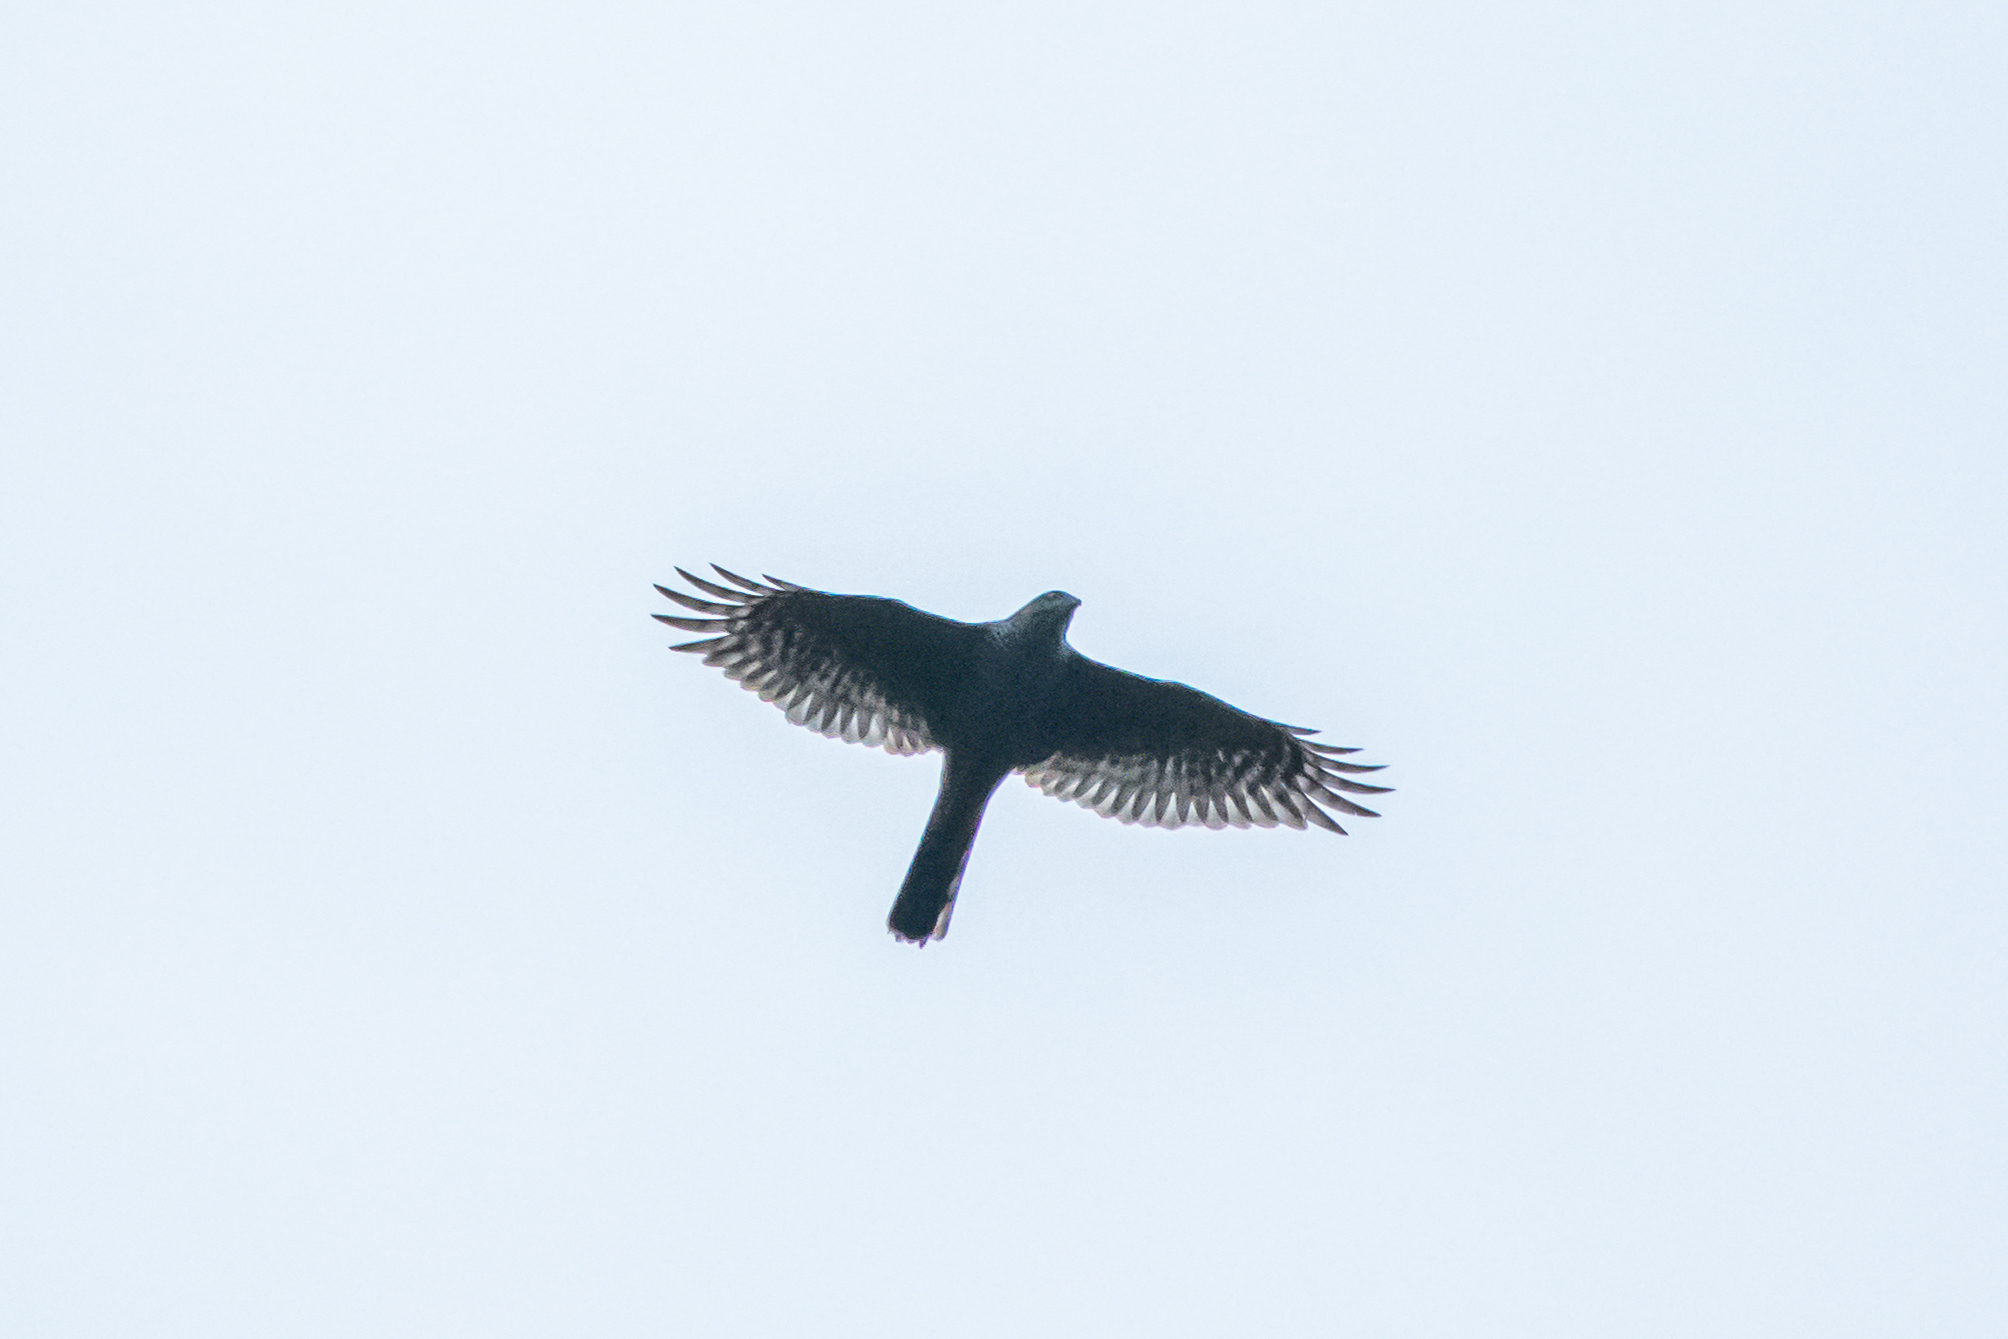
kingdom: Animalia
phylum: Chordata
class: Aves
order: Accipitriformes
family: Accipitridae
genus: Accipiter
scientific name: Accipiter nisus
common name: Eurasian sparrowhawk
